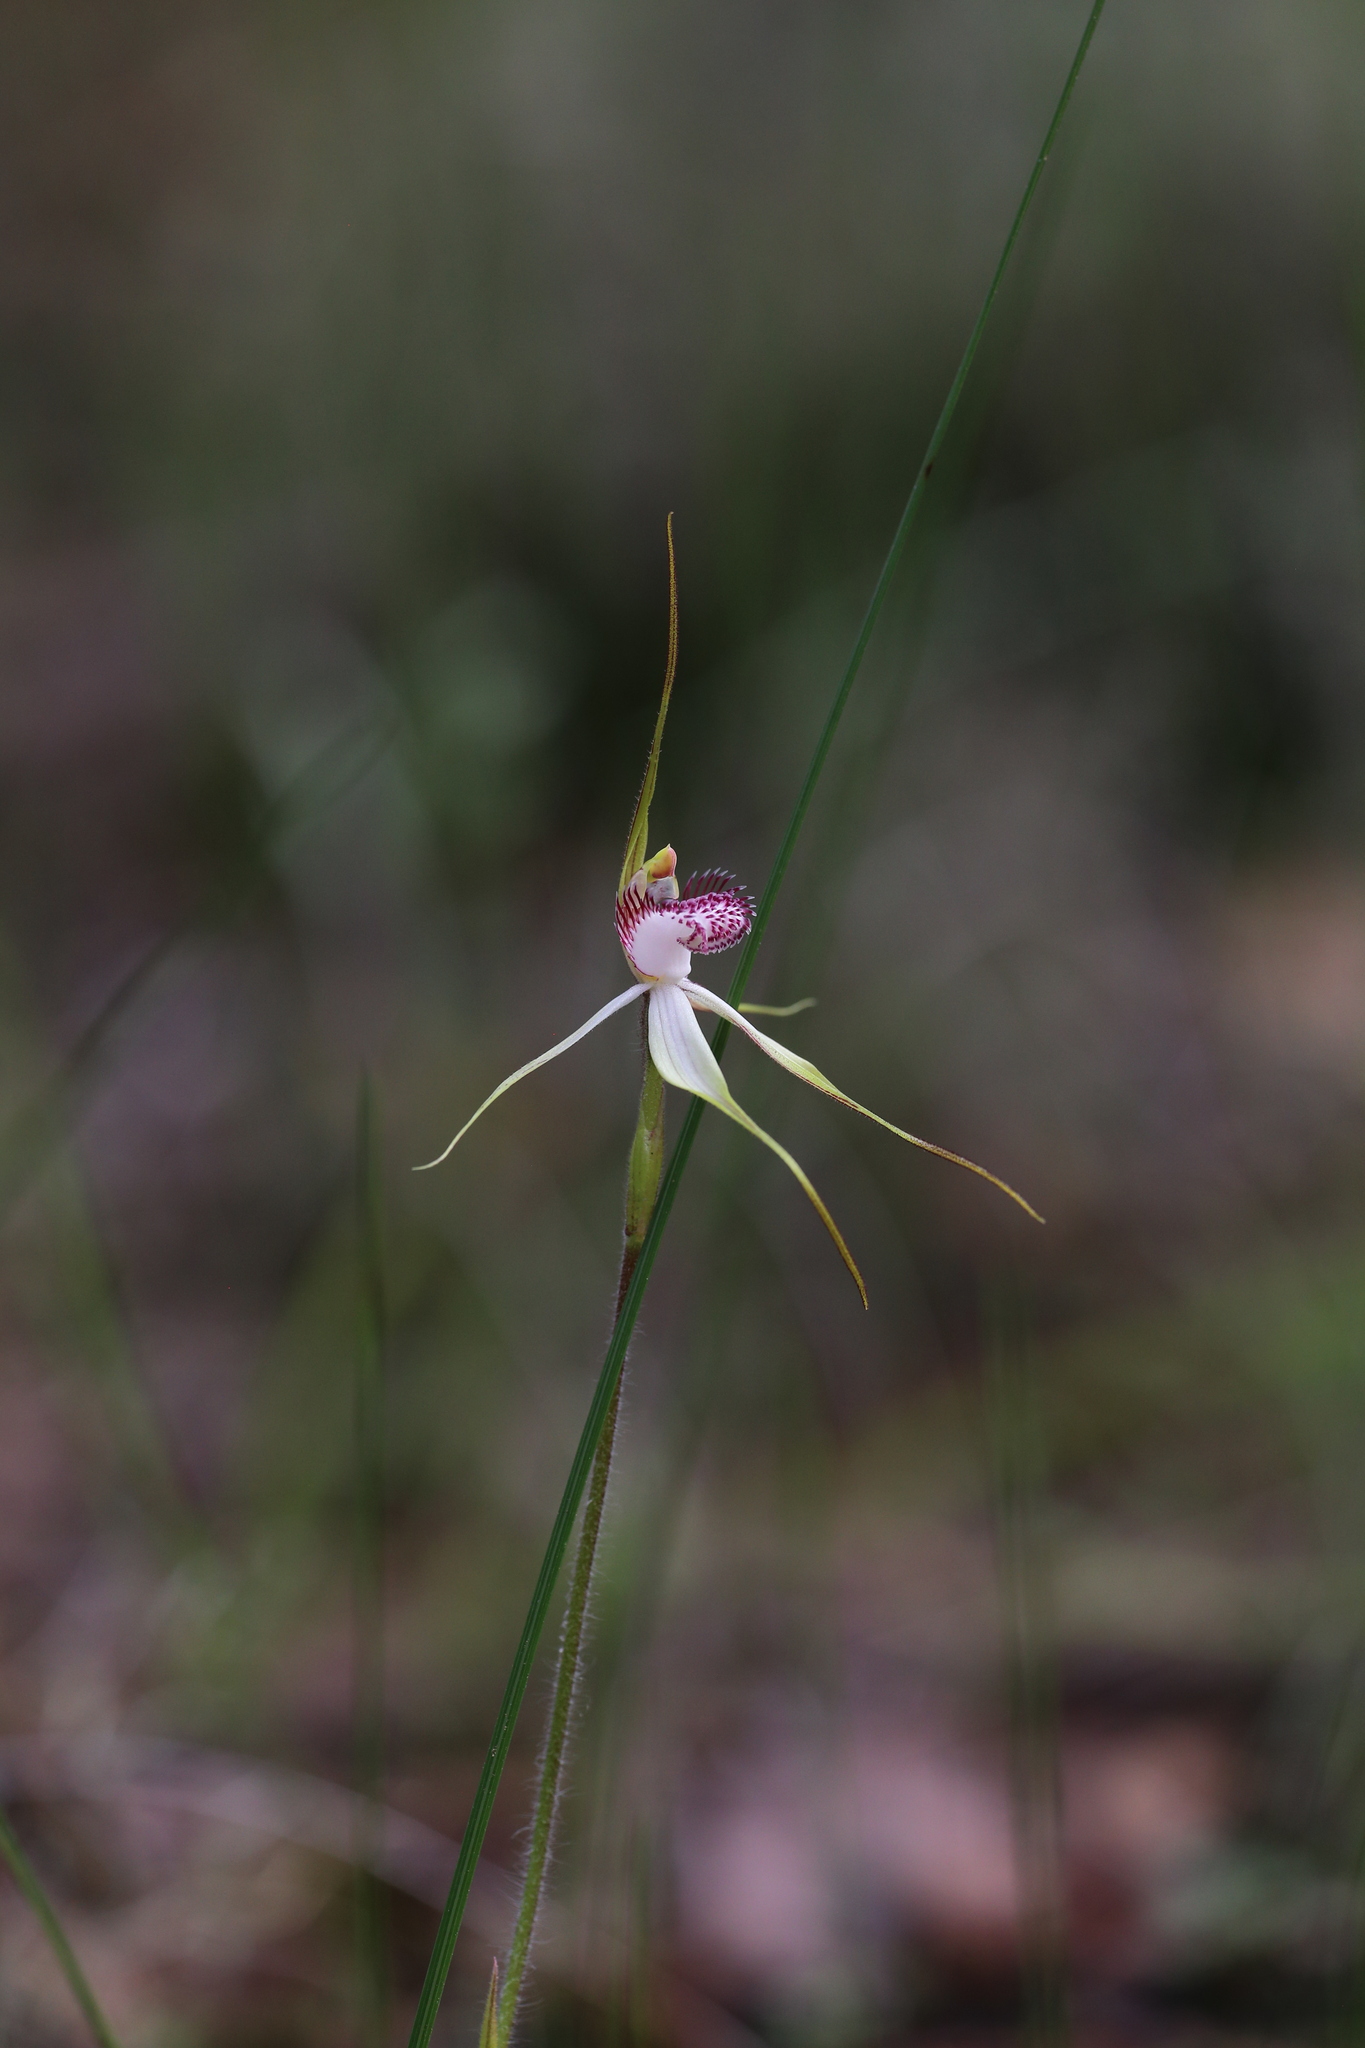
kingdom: Plantae
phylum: Tracheophyta
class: Liliopsida
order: Asparagales
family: Orchidaceae
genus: Caladenia
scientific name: Caladenia multiplex
